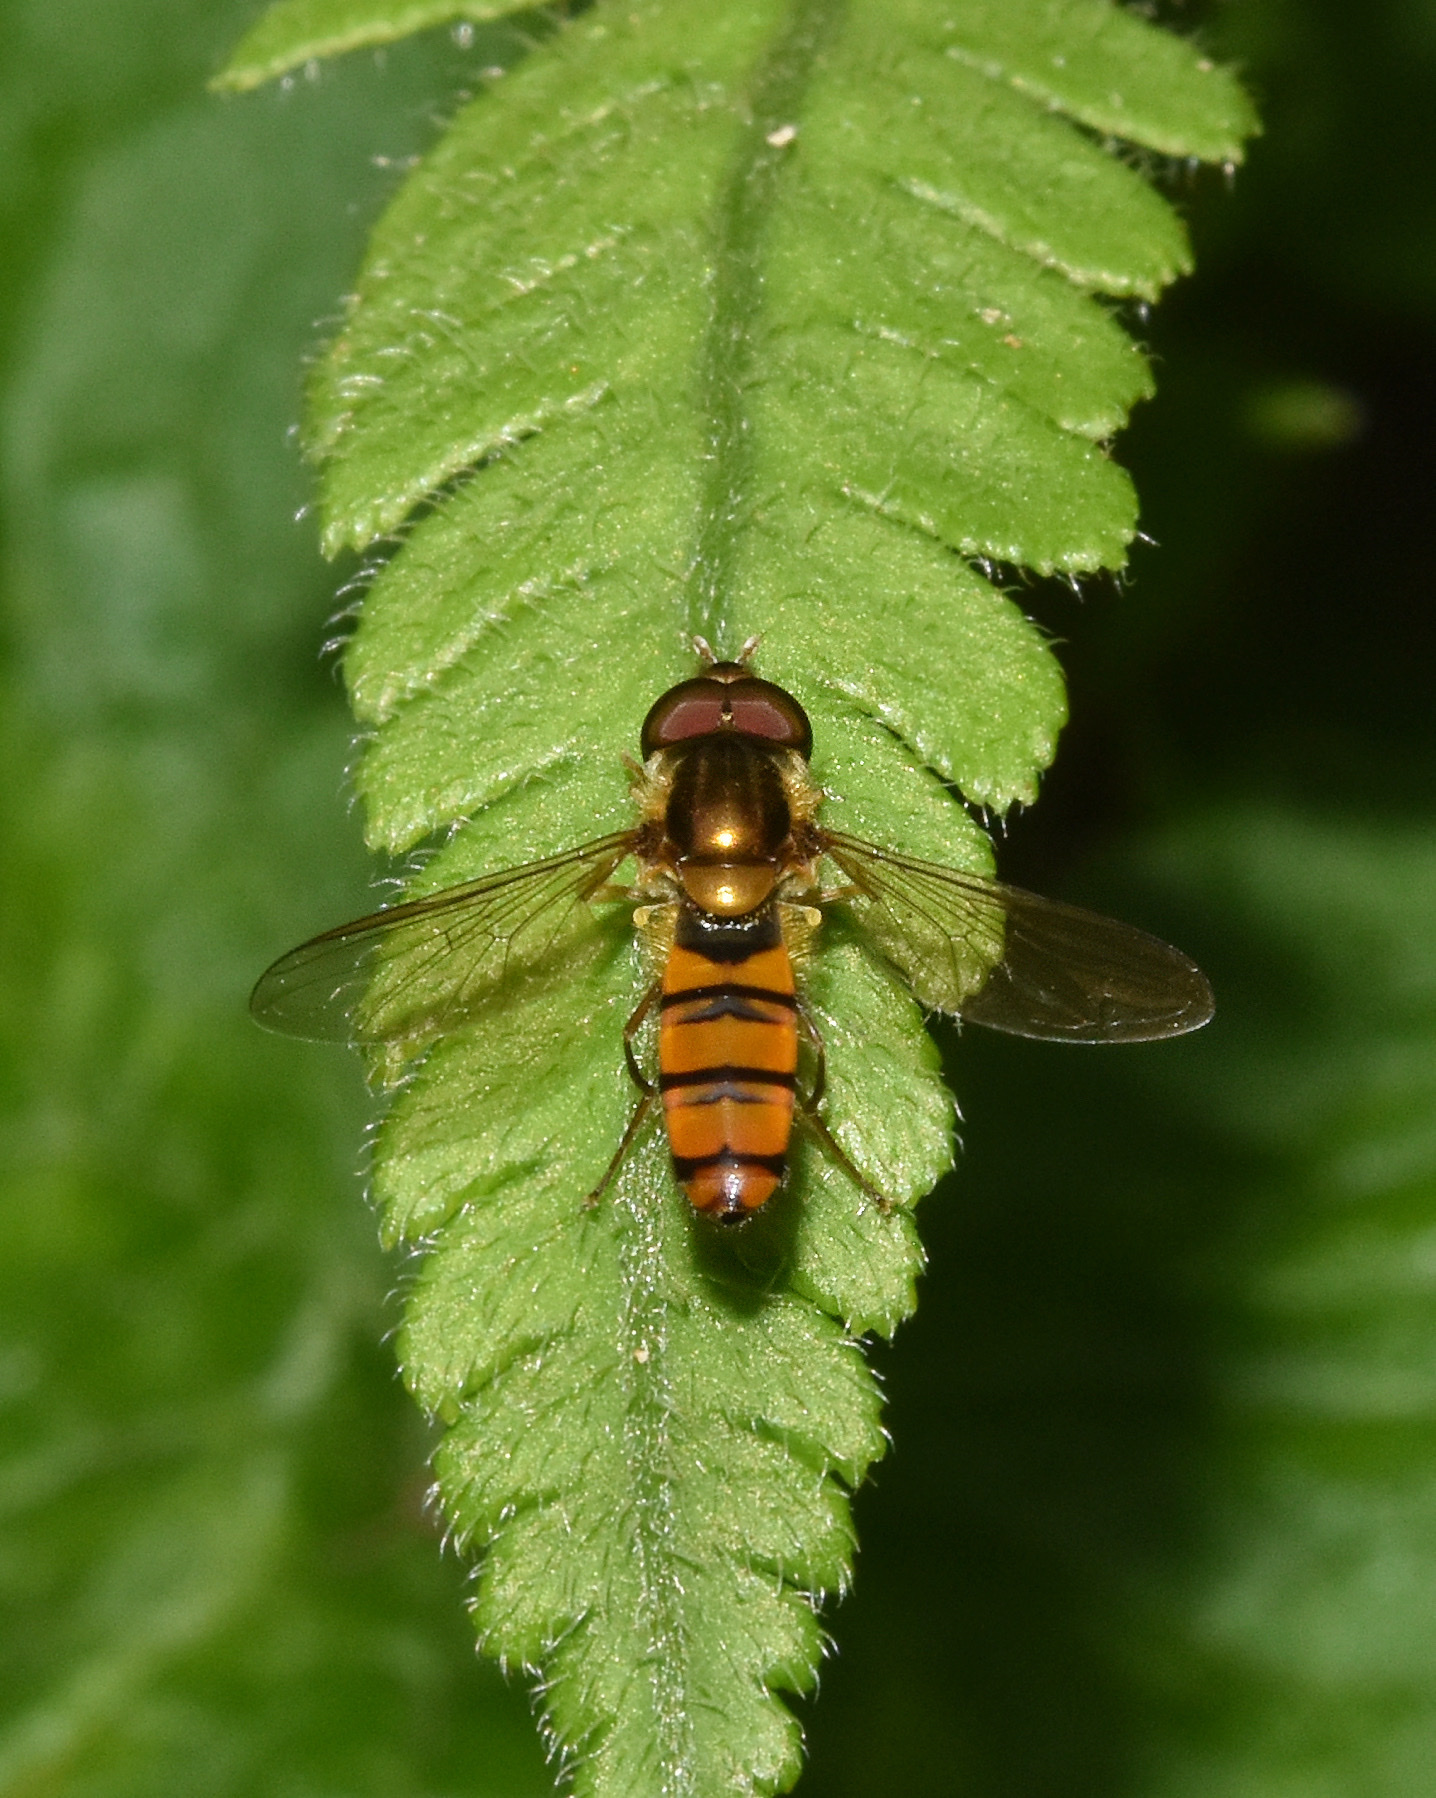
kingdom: Animalia
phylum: Arthropoda
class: Insecta
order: Diptera
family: Syrphidae
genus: Episyrphus
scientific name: Episyrphus trisectus
